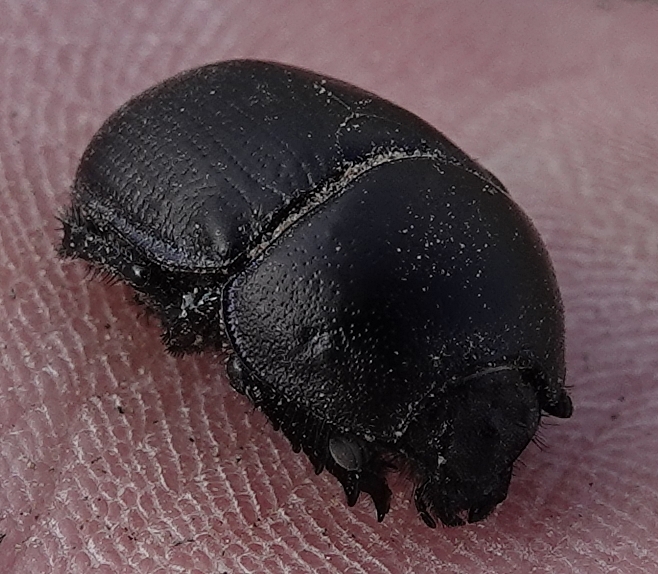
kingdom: Animalia
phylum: Arthropoda
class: Insecta
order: Coleoptera
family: Geotrupidae
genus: Geohowdenius
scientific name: Geohowdenius opacus
